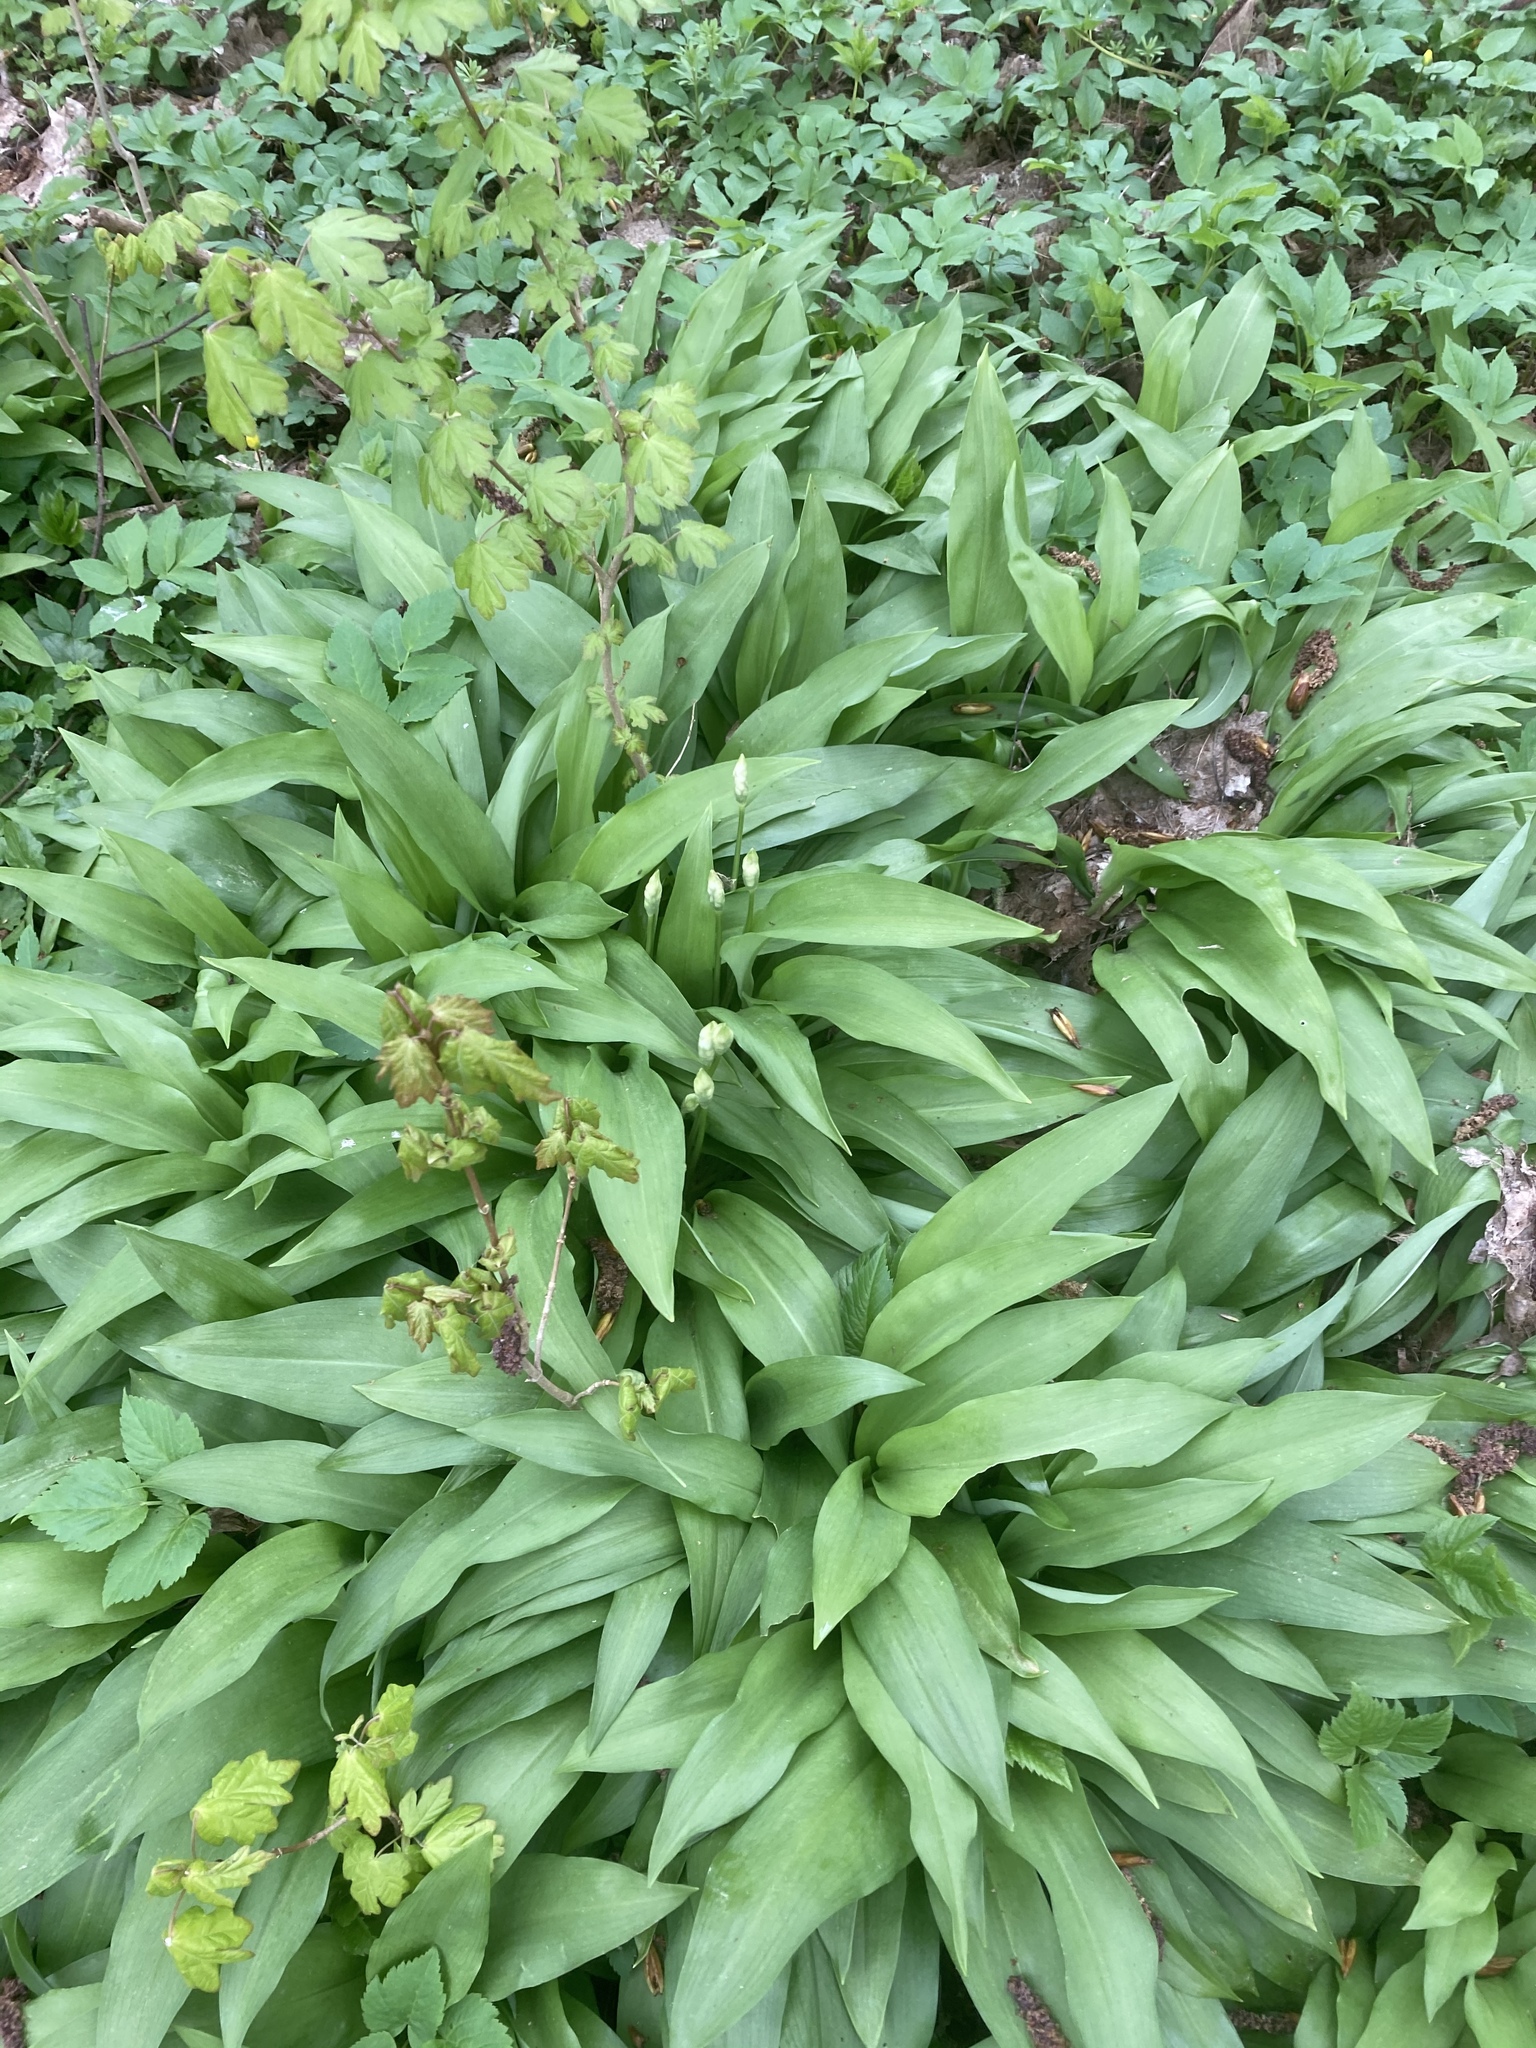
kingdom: Plantae
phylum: Tracheophyta
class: Liliopsida
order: Asparagales
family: Amaryllidaceae
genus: Allium
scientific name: Allium ursinum
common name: Ramsons
